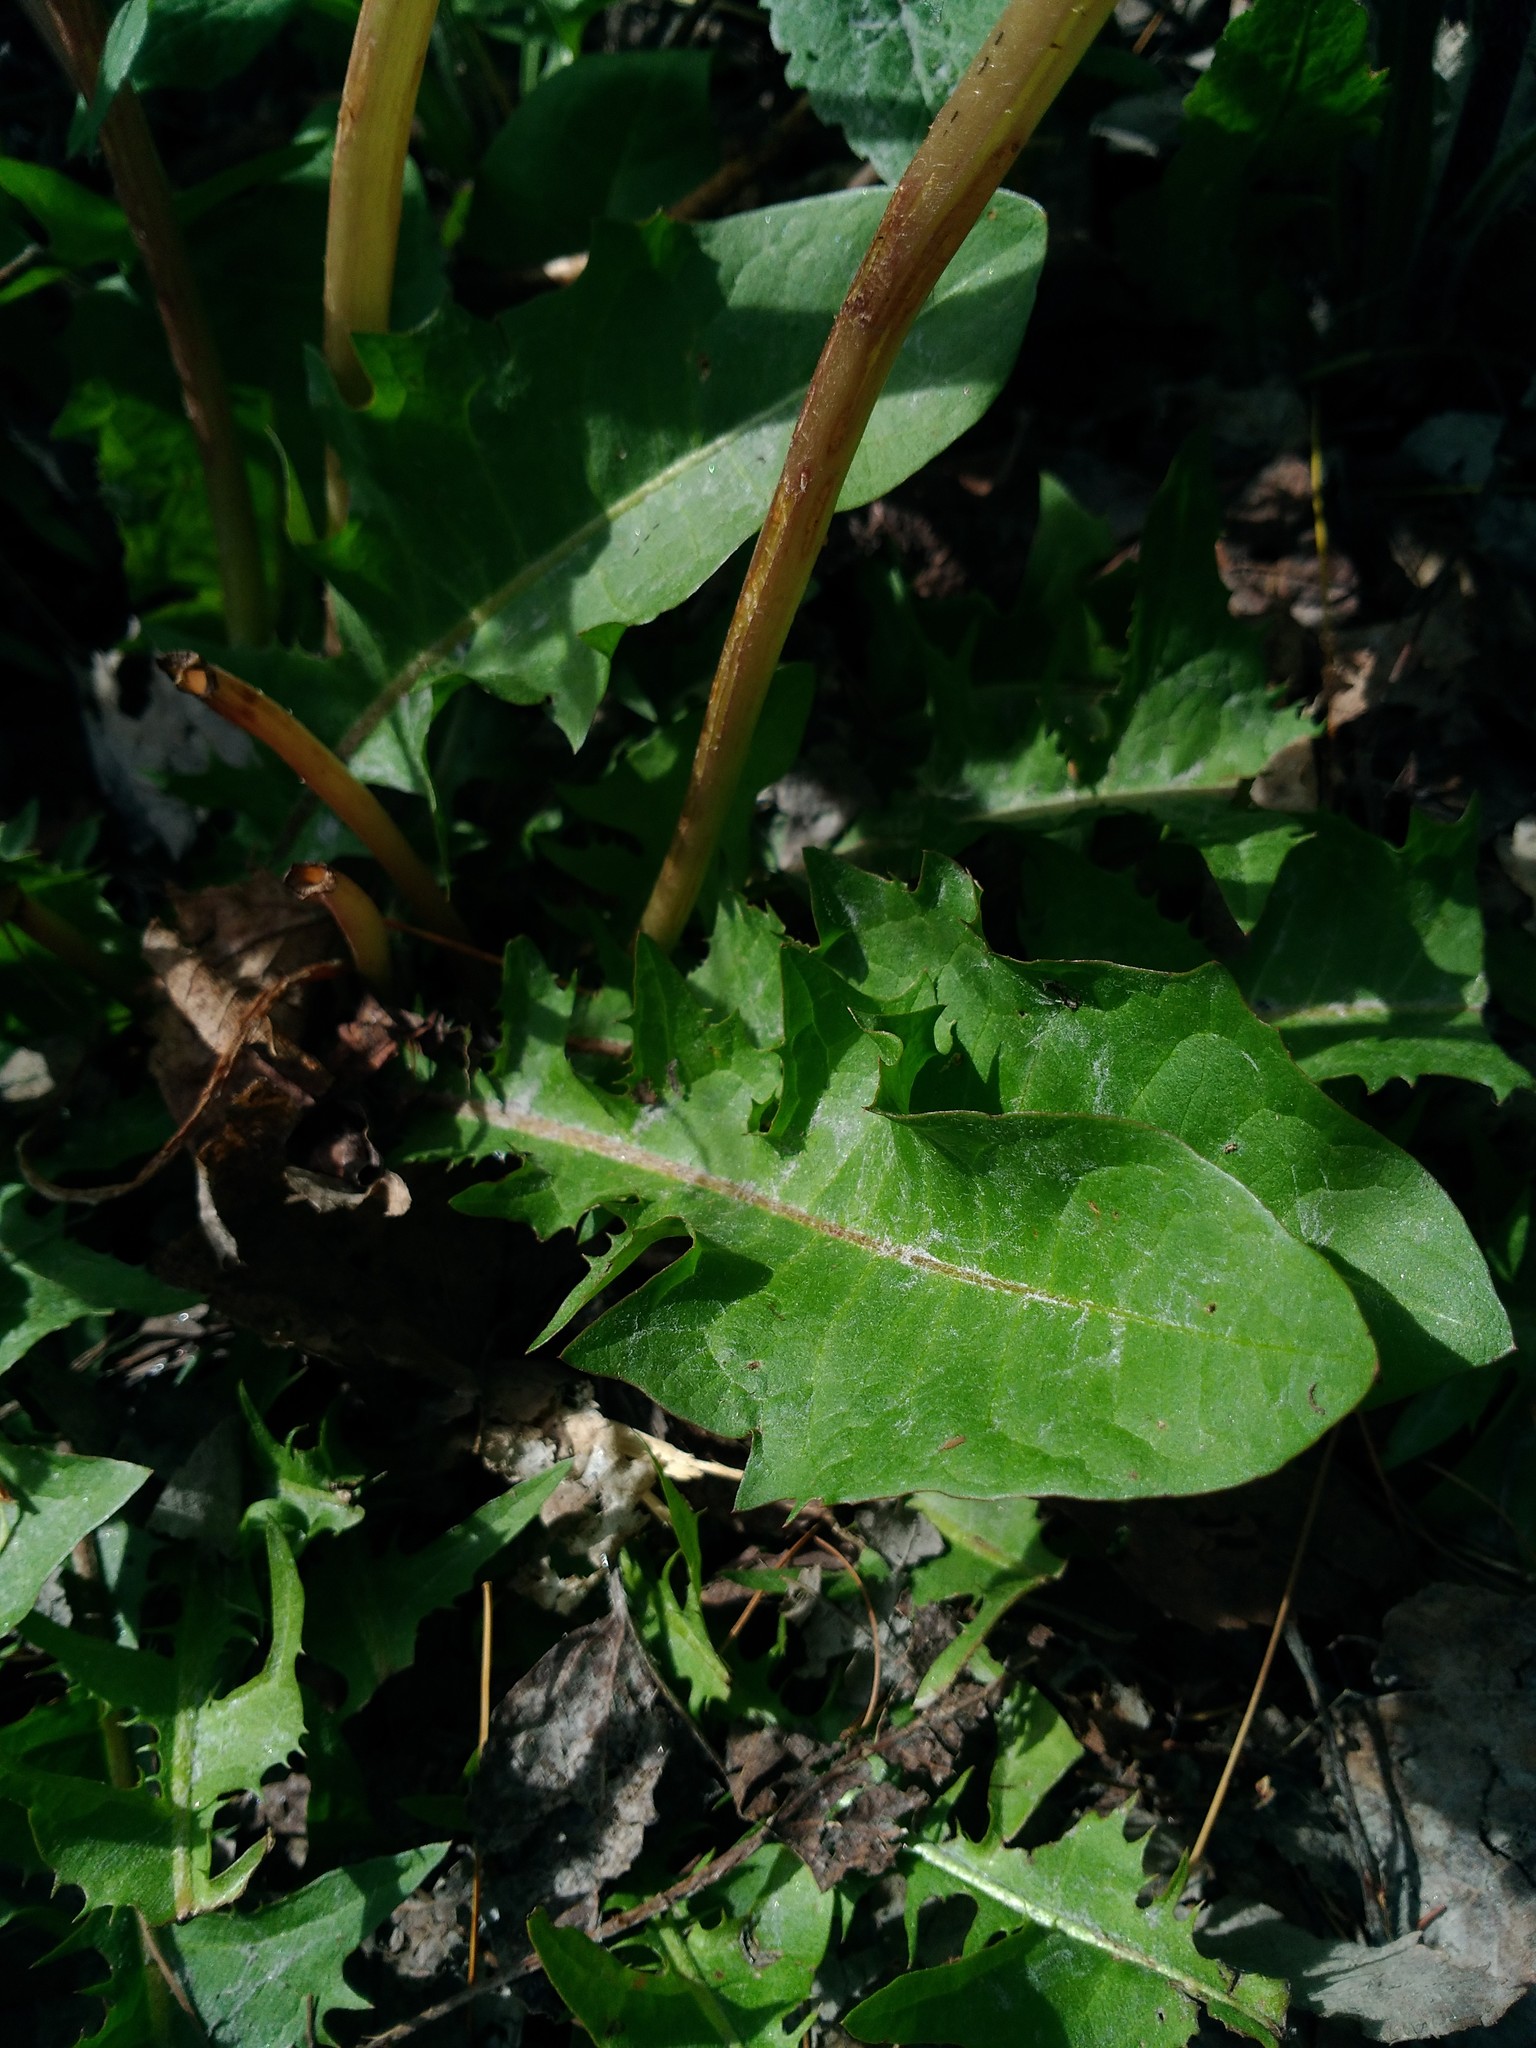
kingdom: Plantae
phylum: Tracheophyta
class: Magnoliopsida
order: Asterales
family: Asteraceae
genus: Taraxacum
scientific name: Taraxacum officinale
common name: Common dandelion
